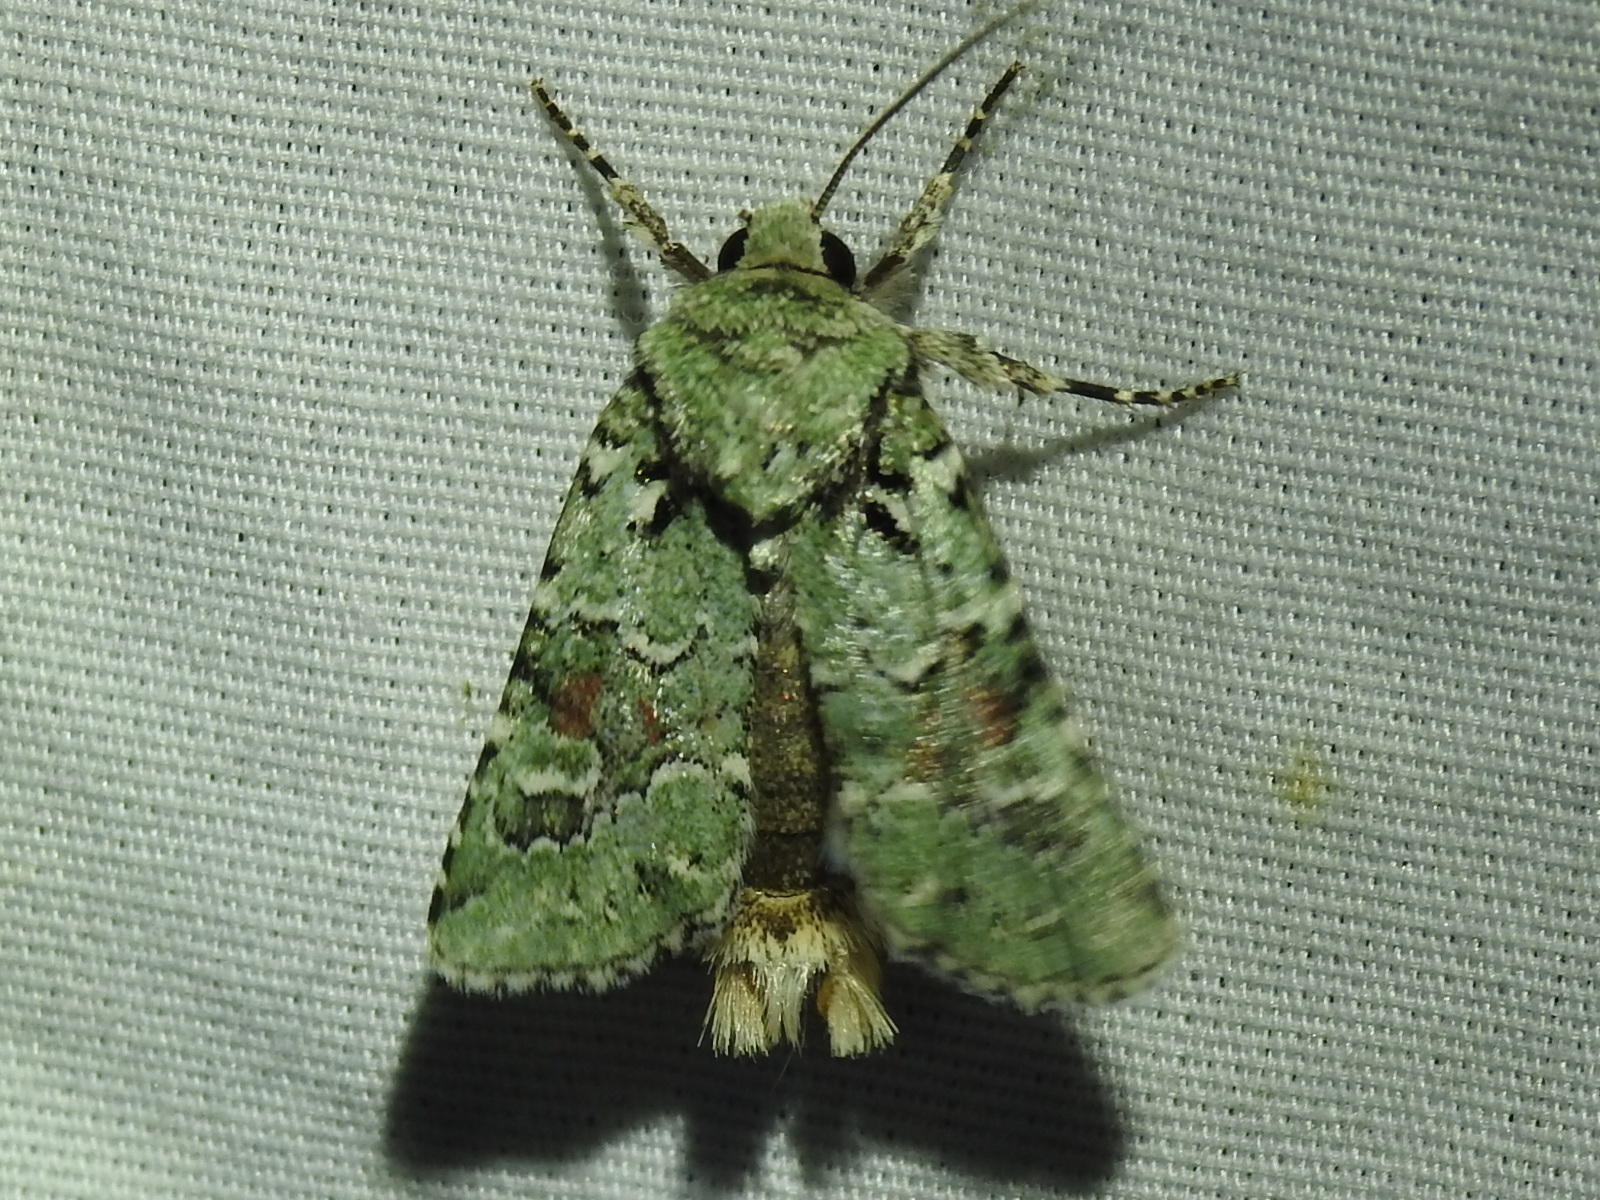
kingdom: Animalia
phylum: Arthropoda
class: Insecta
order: Lepidoptera
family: Noctuidae
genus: Lacinipolia
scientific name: Lacinipolia laudabilis
